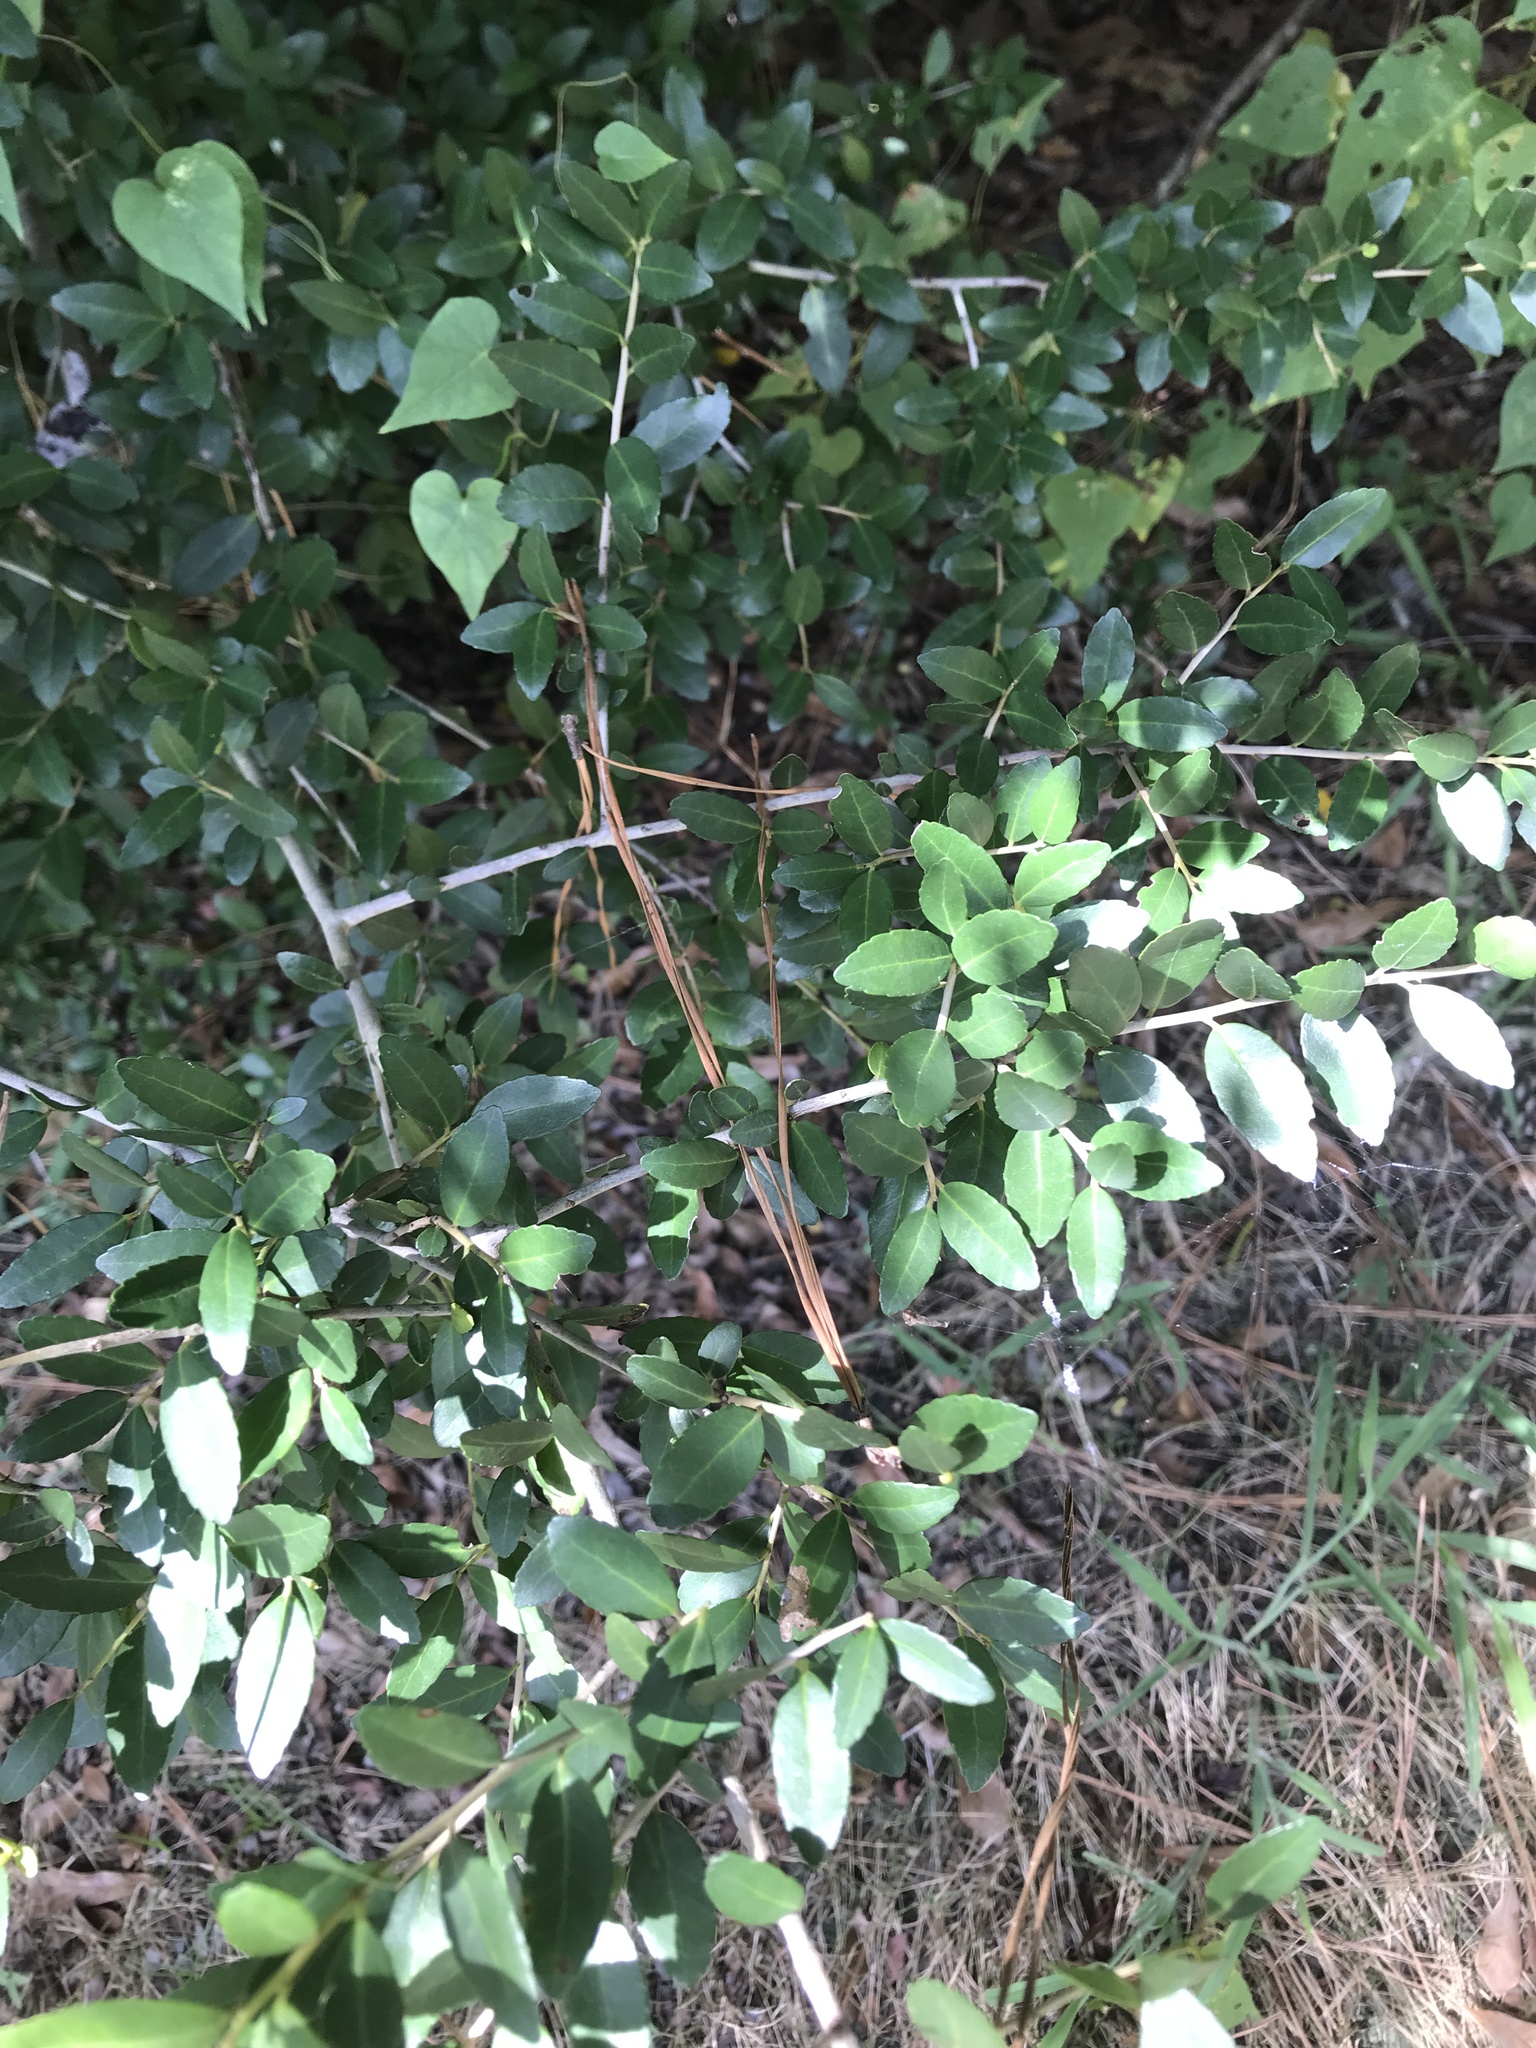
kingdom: Plantae
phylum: Tracheophyta
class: Magnoliopsida
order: Aquifoliales
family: Aquifoliaceae
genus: Ilex
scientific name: Ilex vomitoria
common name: Yaupon holly
